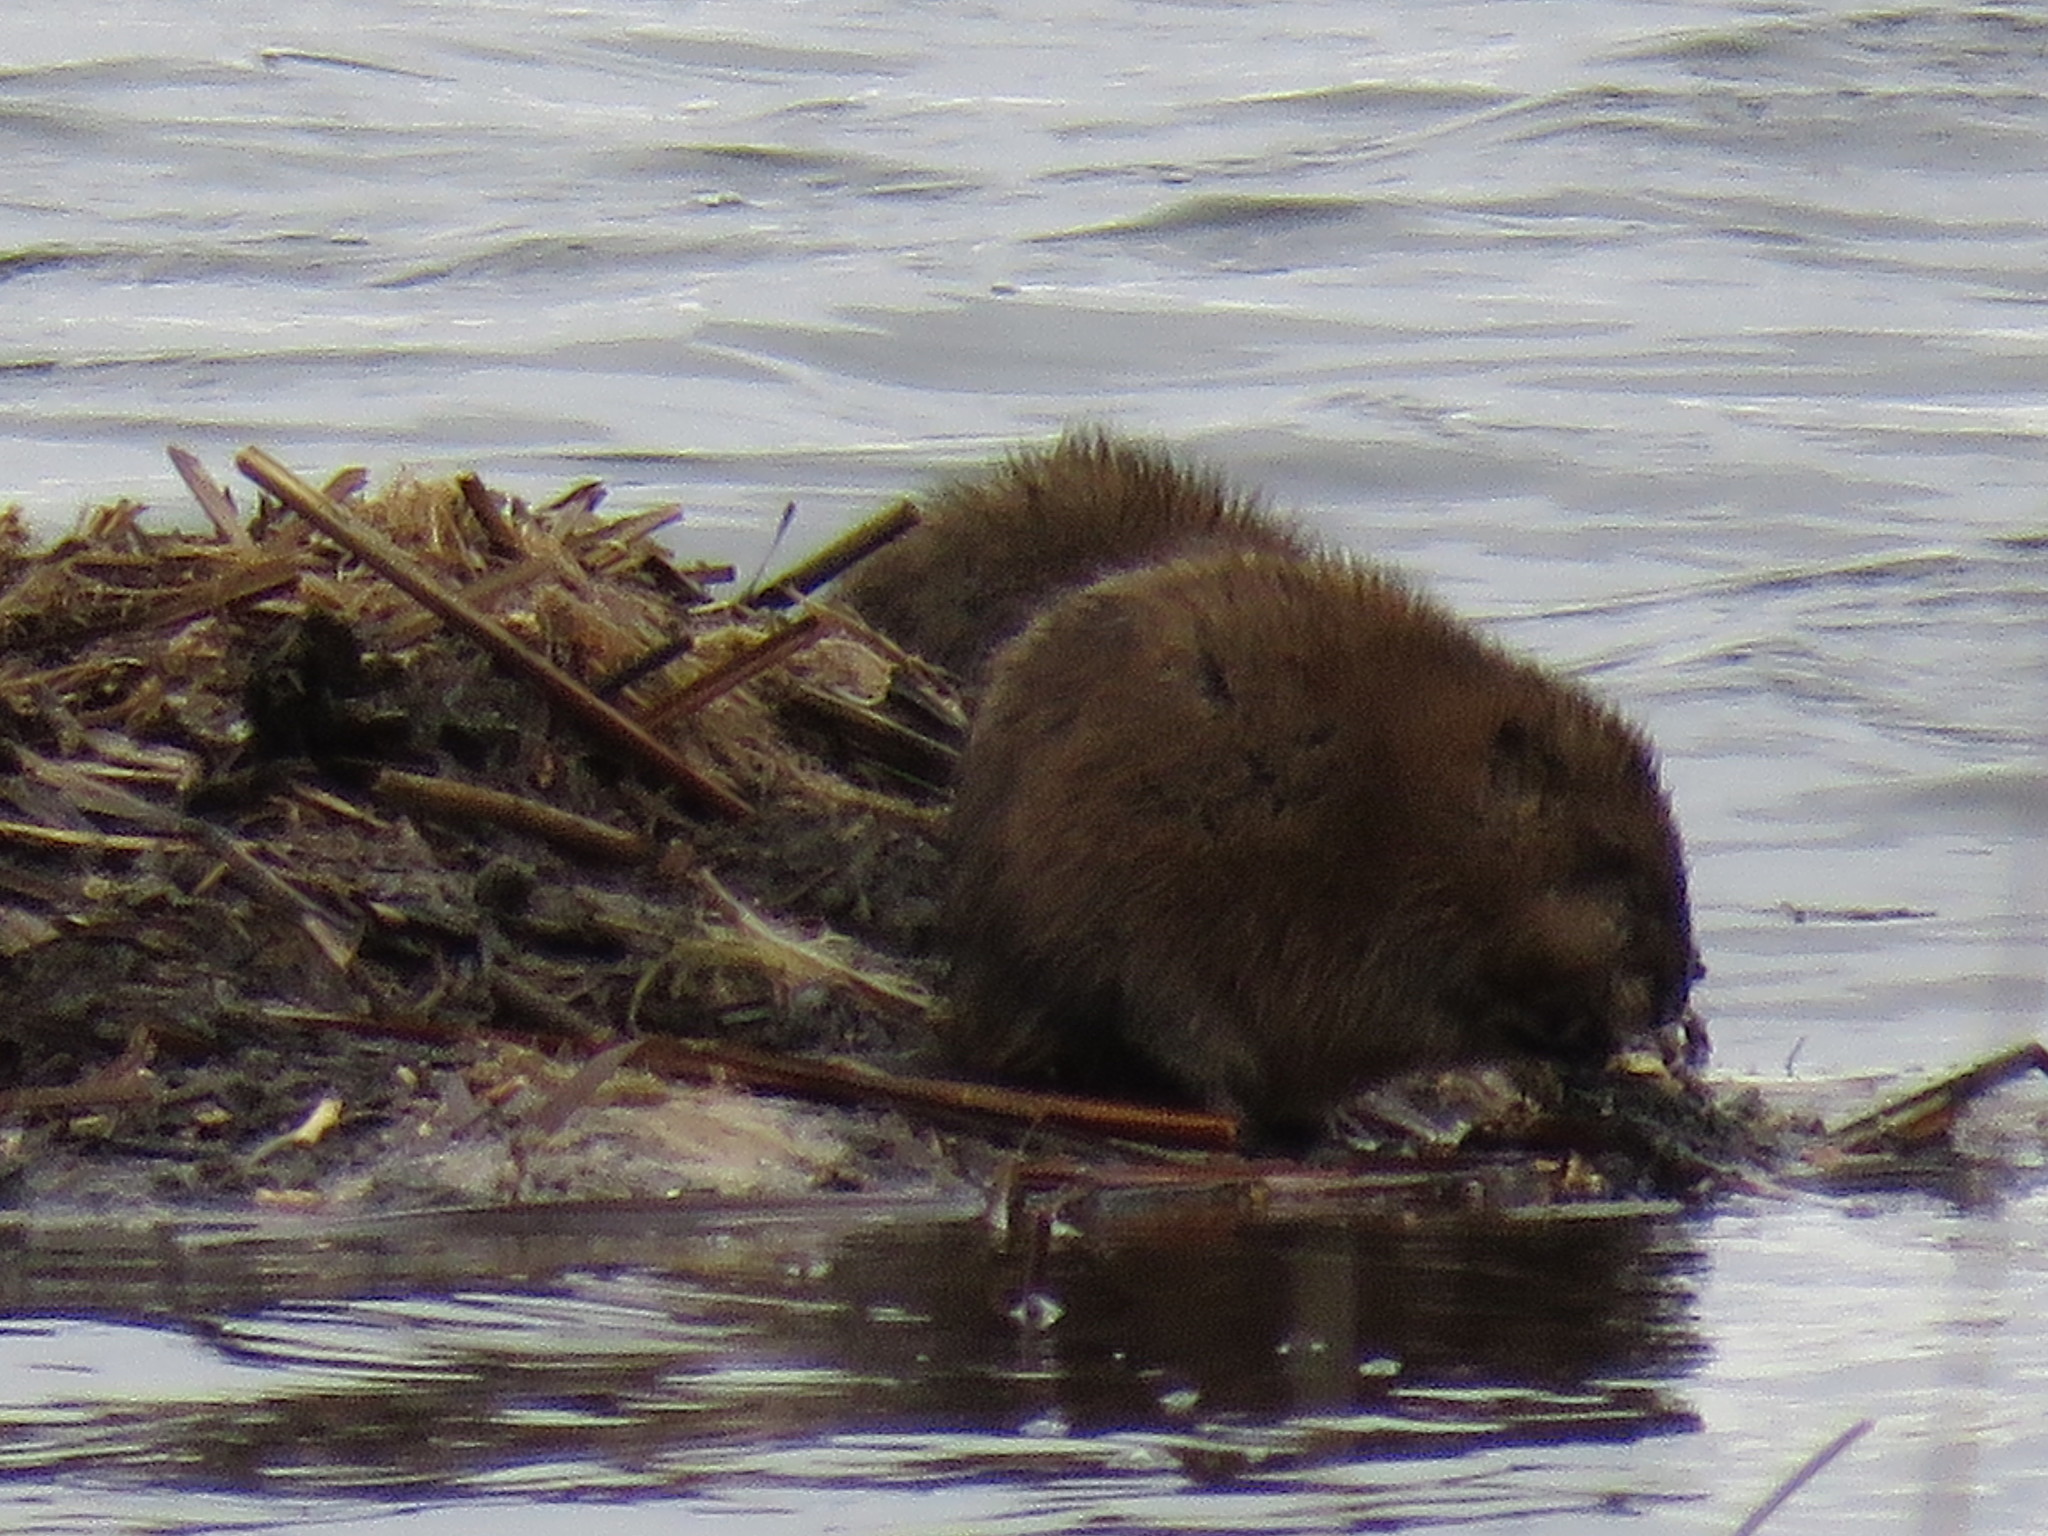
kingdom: Animalia
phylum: Chordata
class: Mammalia
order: Rodentia
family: Cricetidae
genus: Ondatra
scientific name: Ondatra zibethicus
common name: Muskrat
